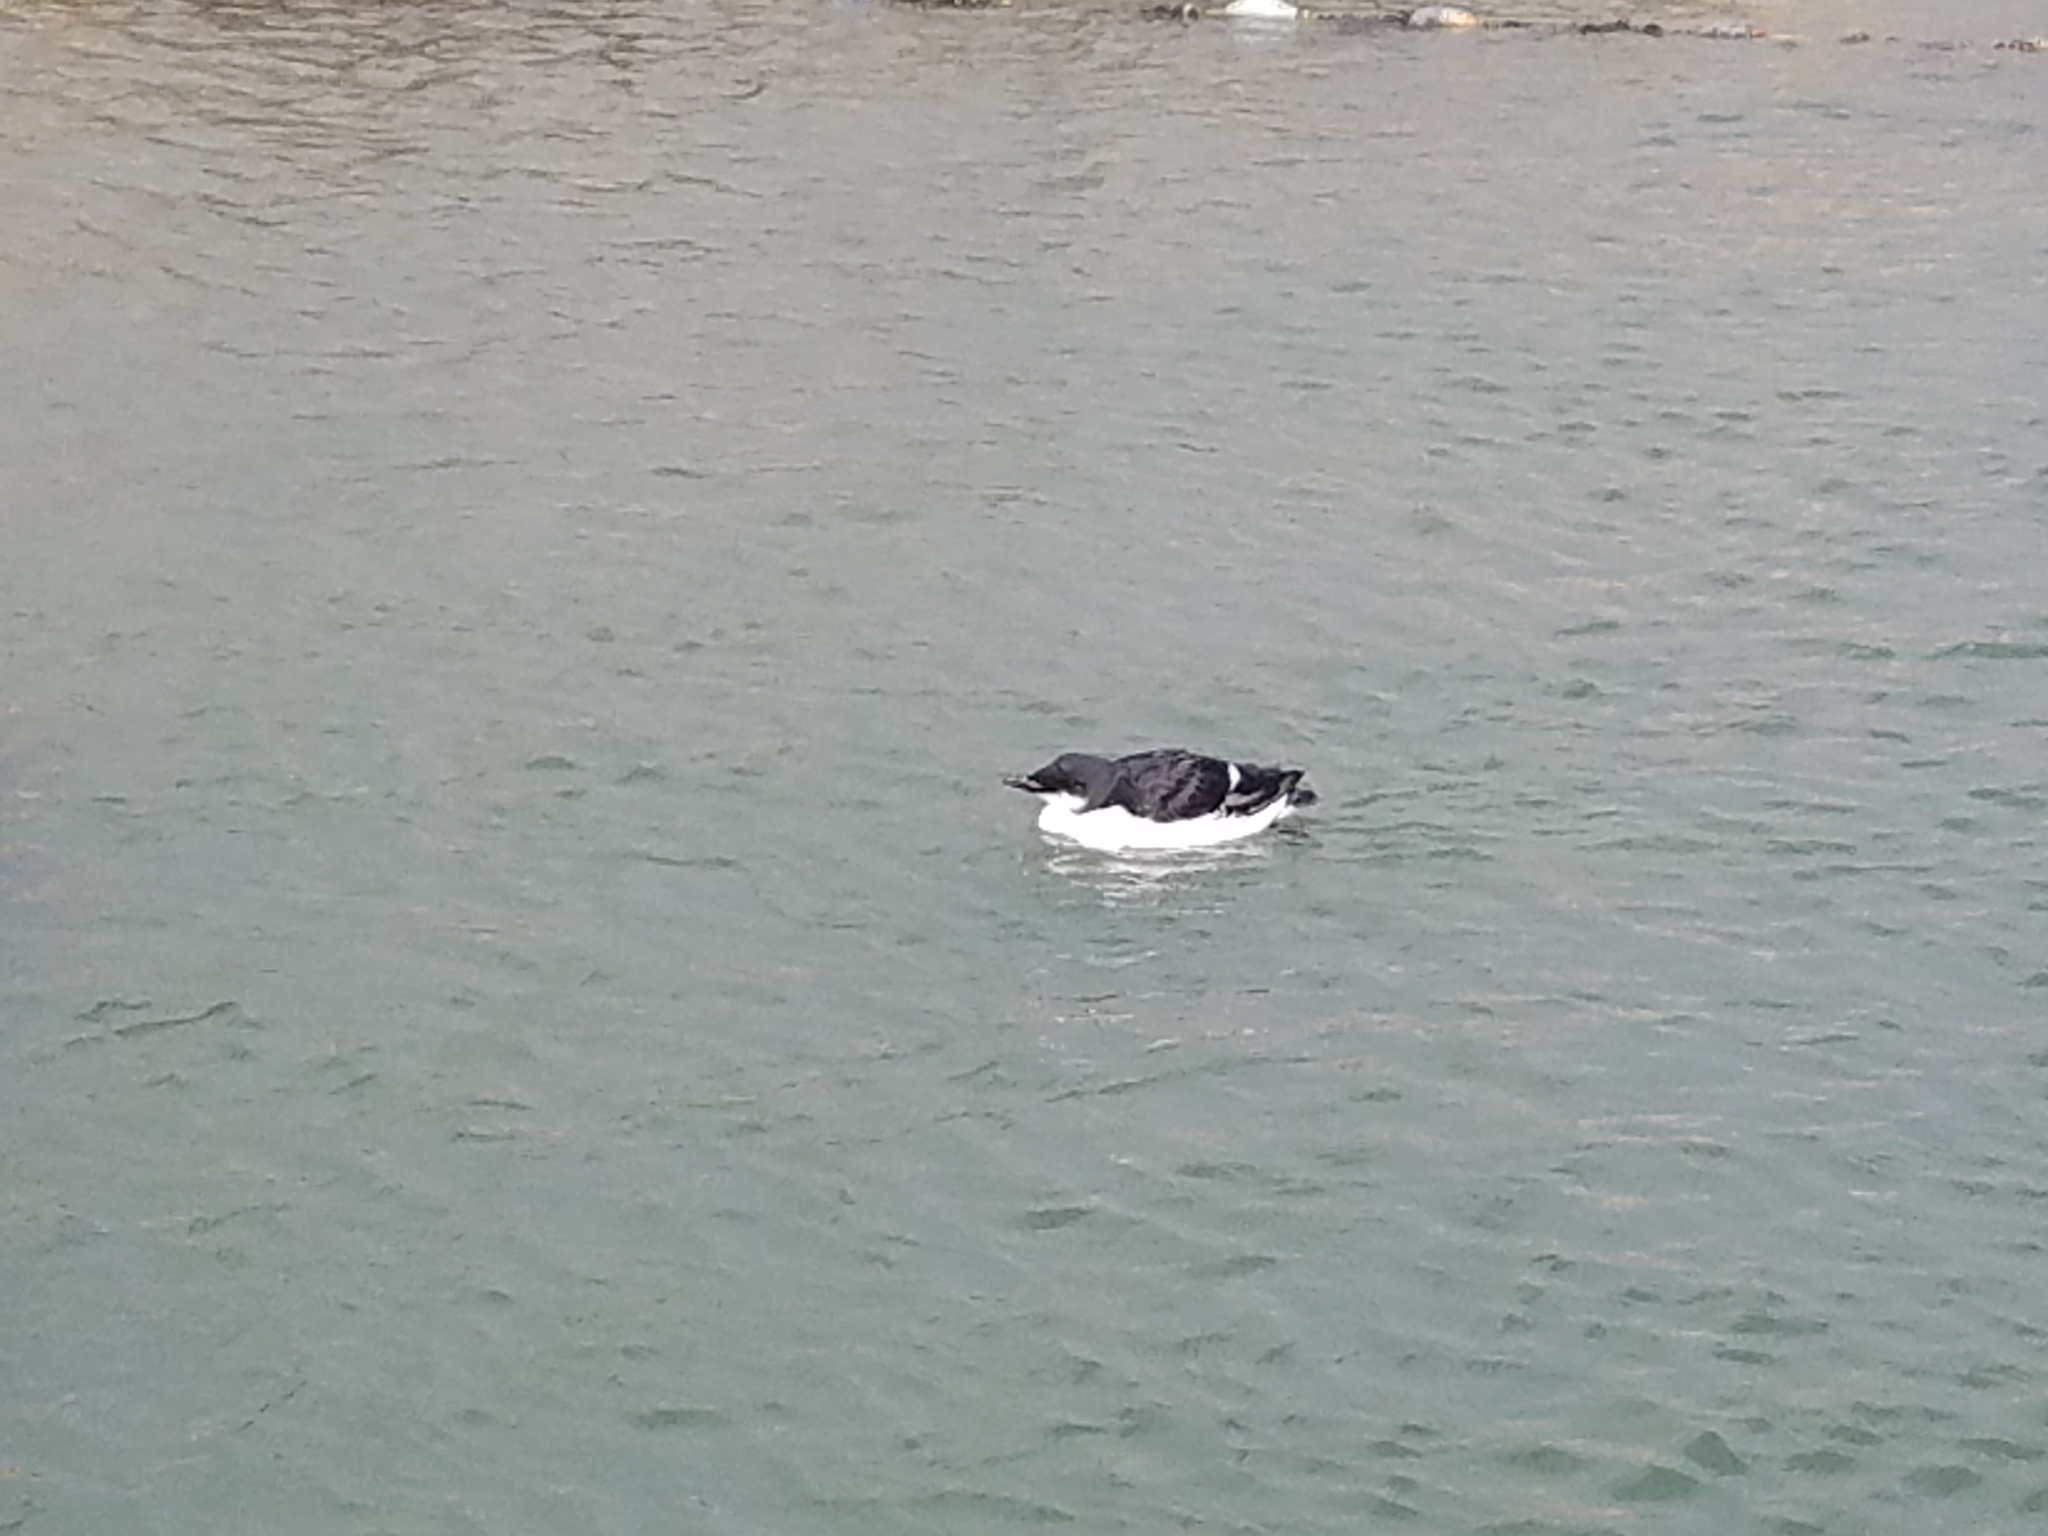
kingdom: Animalia
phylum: Chordata
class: Aves
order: Charadriiformes
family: Alcidae
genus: Uria
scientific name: Uria lomvia
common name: Thick-billed murre
